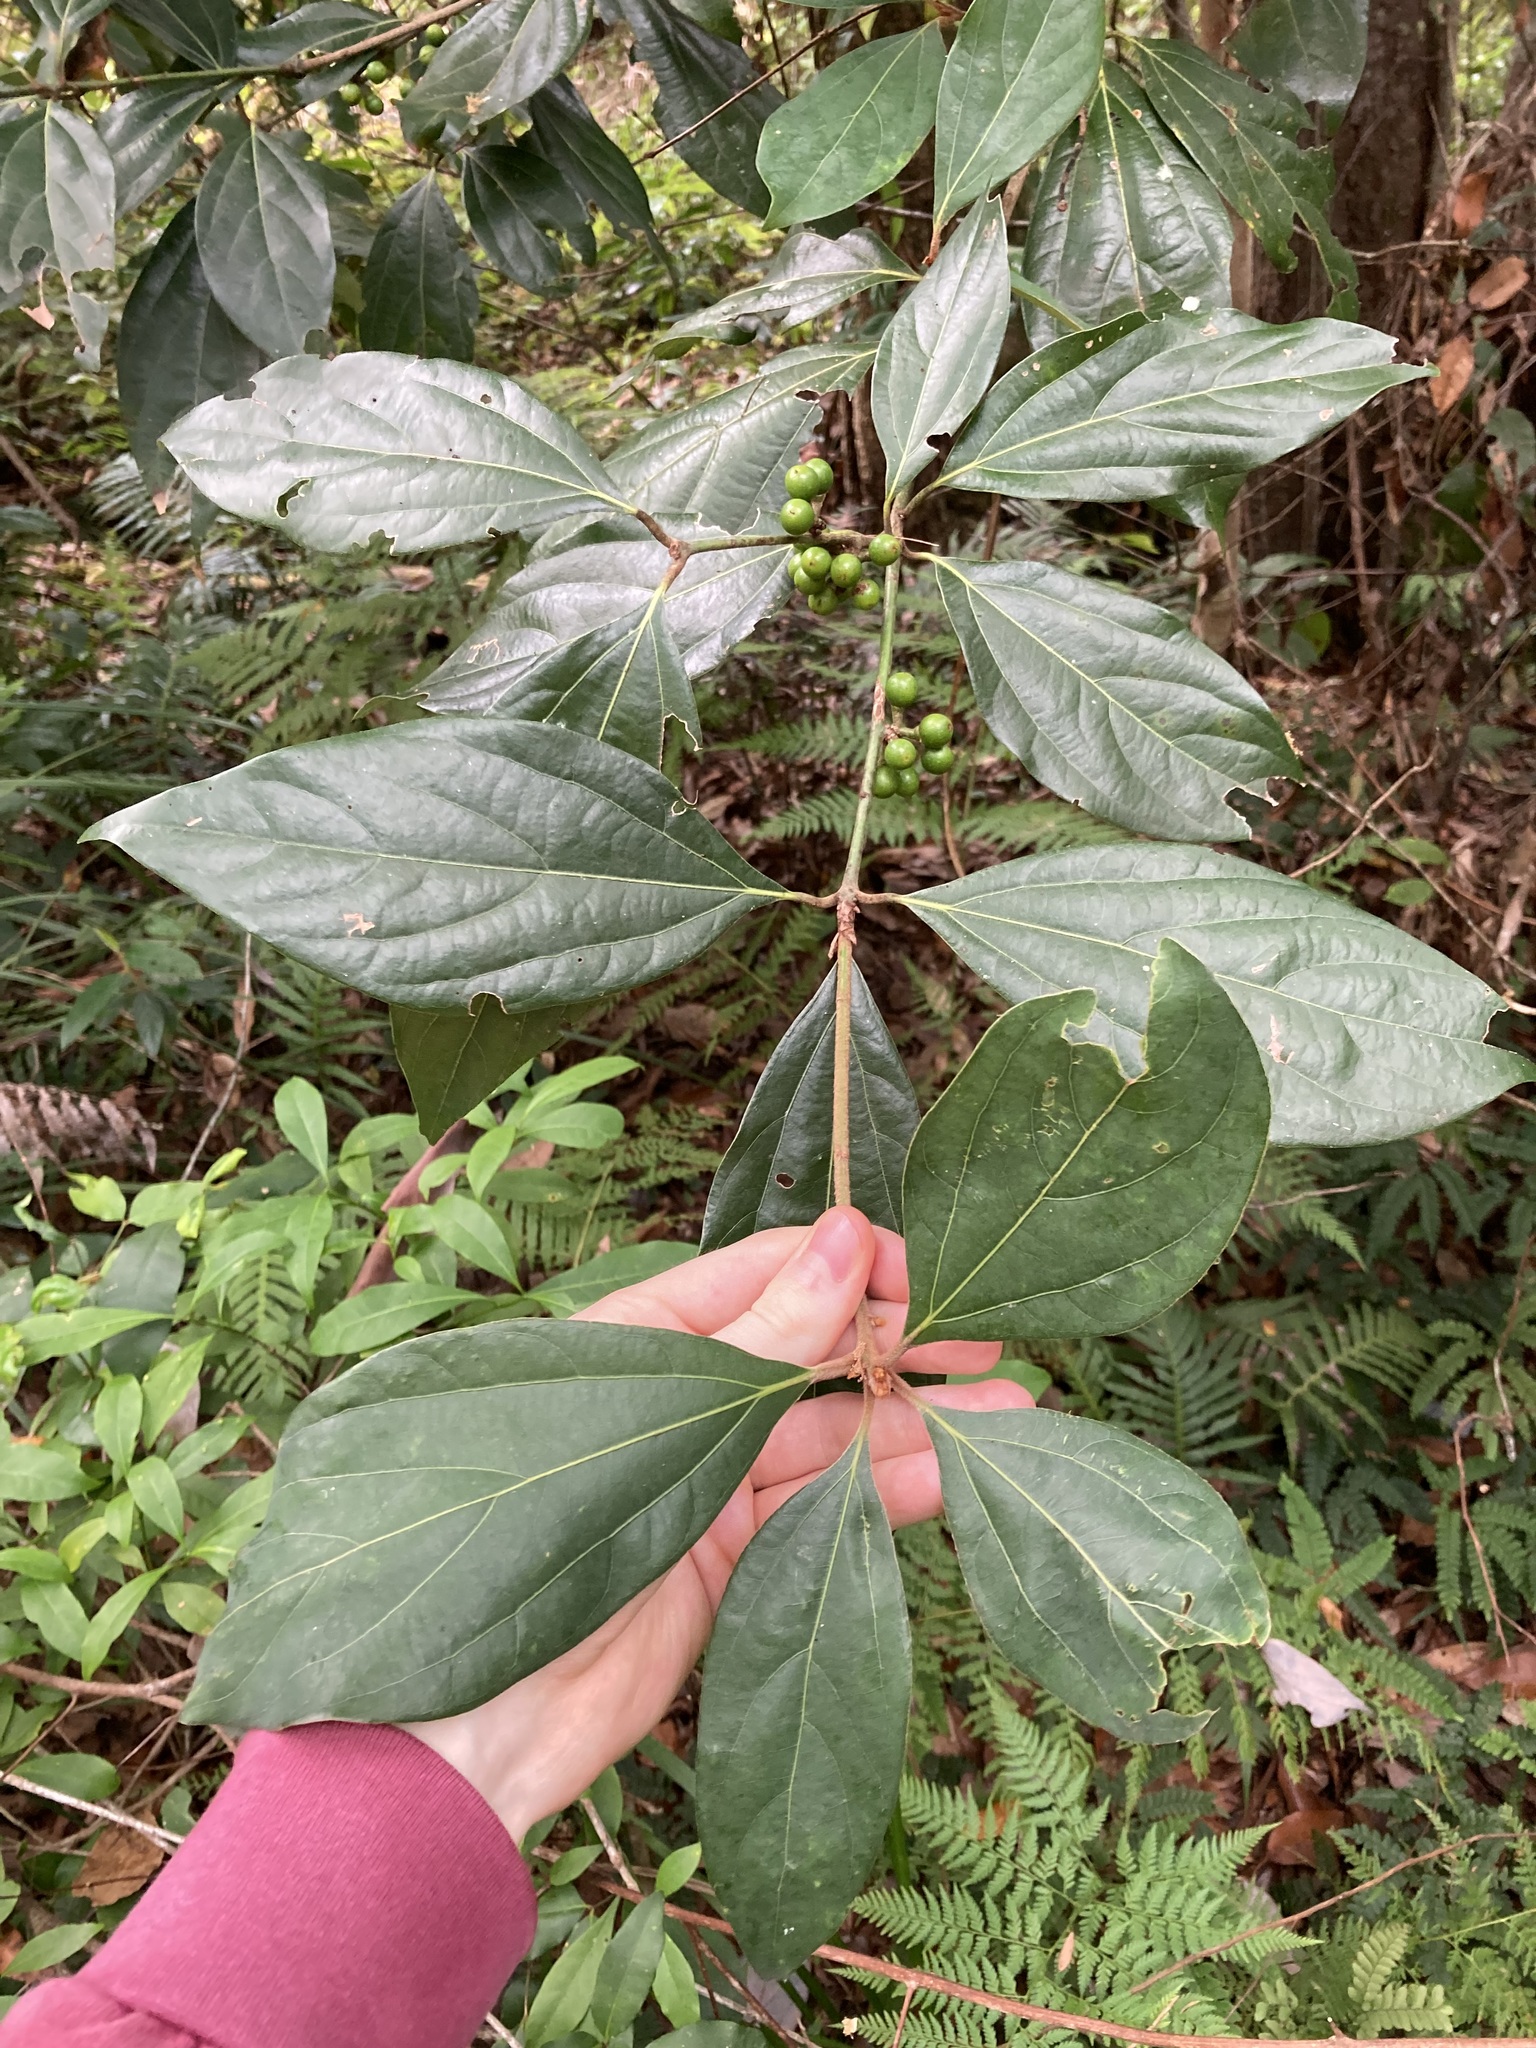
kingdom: Plantae
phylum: Tracheophyta
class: Magnoliopsida
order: Laurales
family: Lauraceae
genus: Neolitsea
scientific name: Neolitsea dealbata
